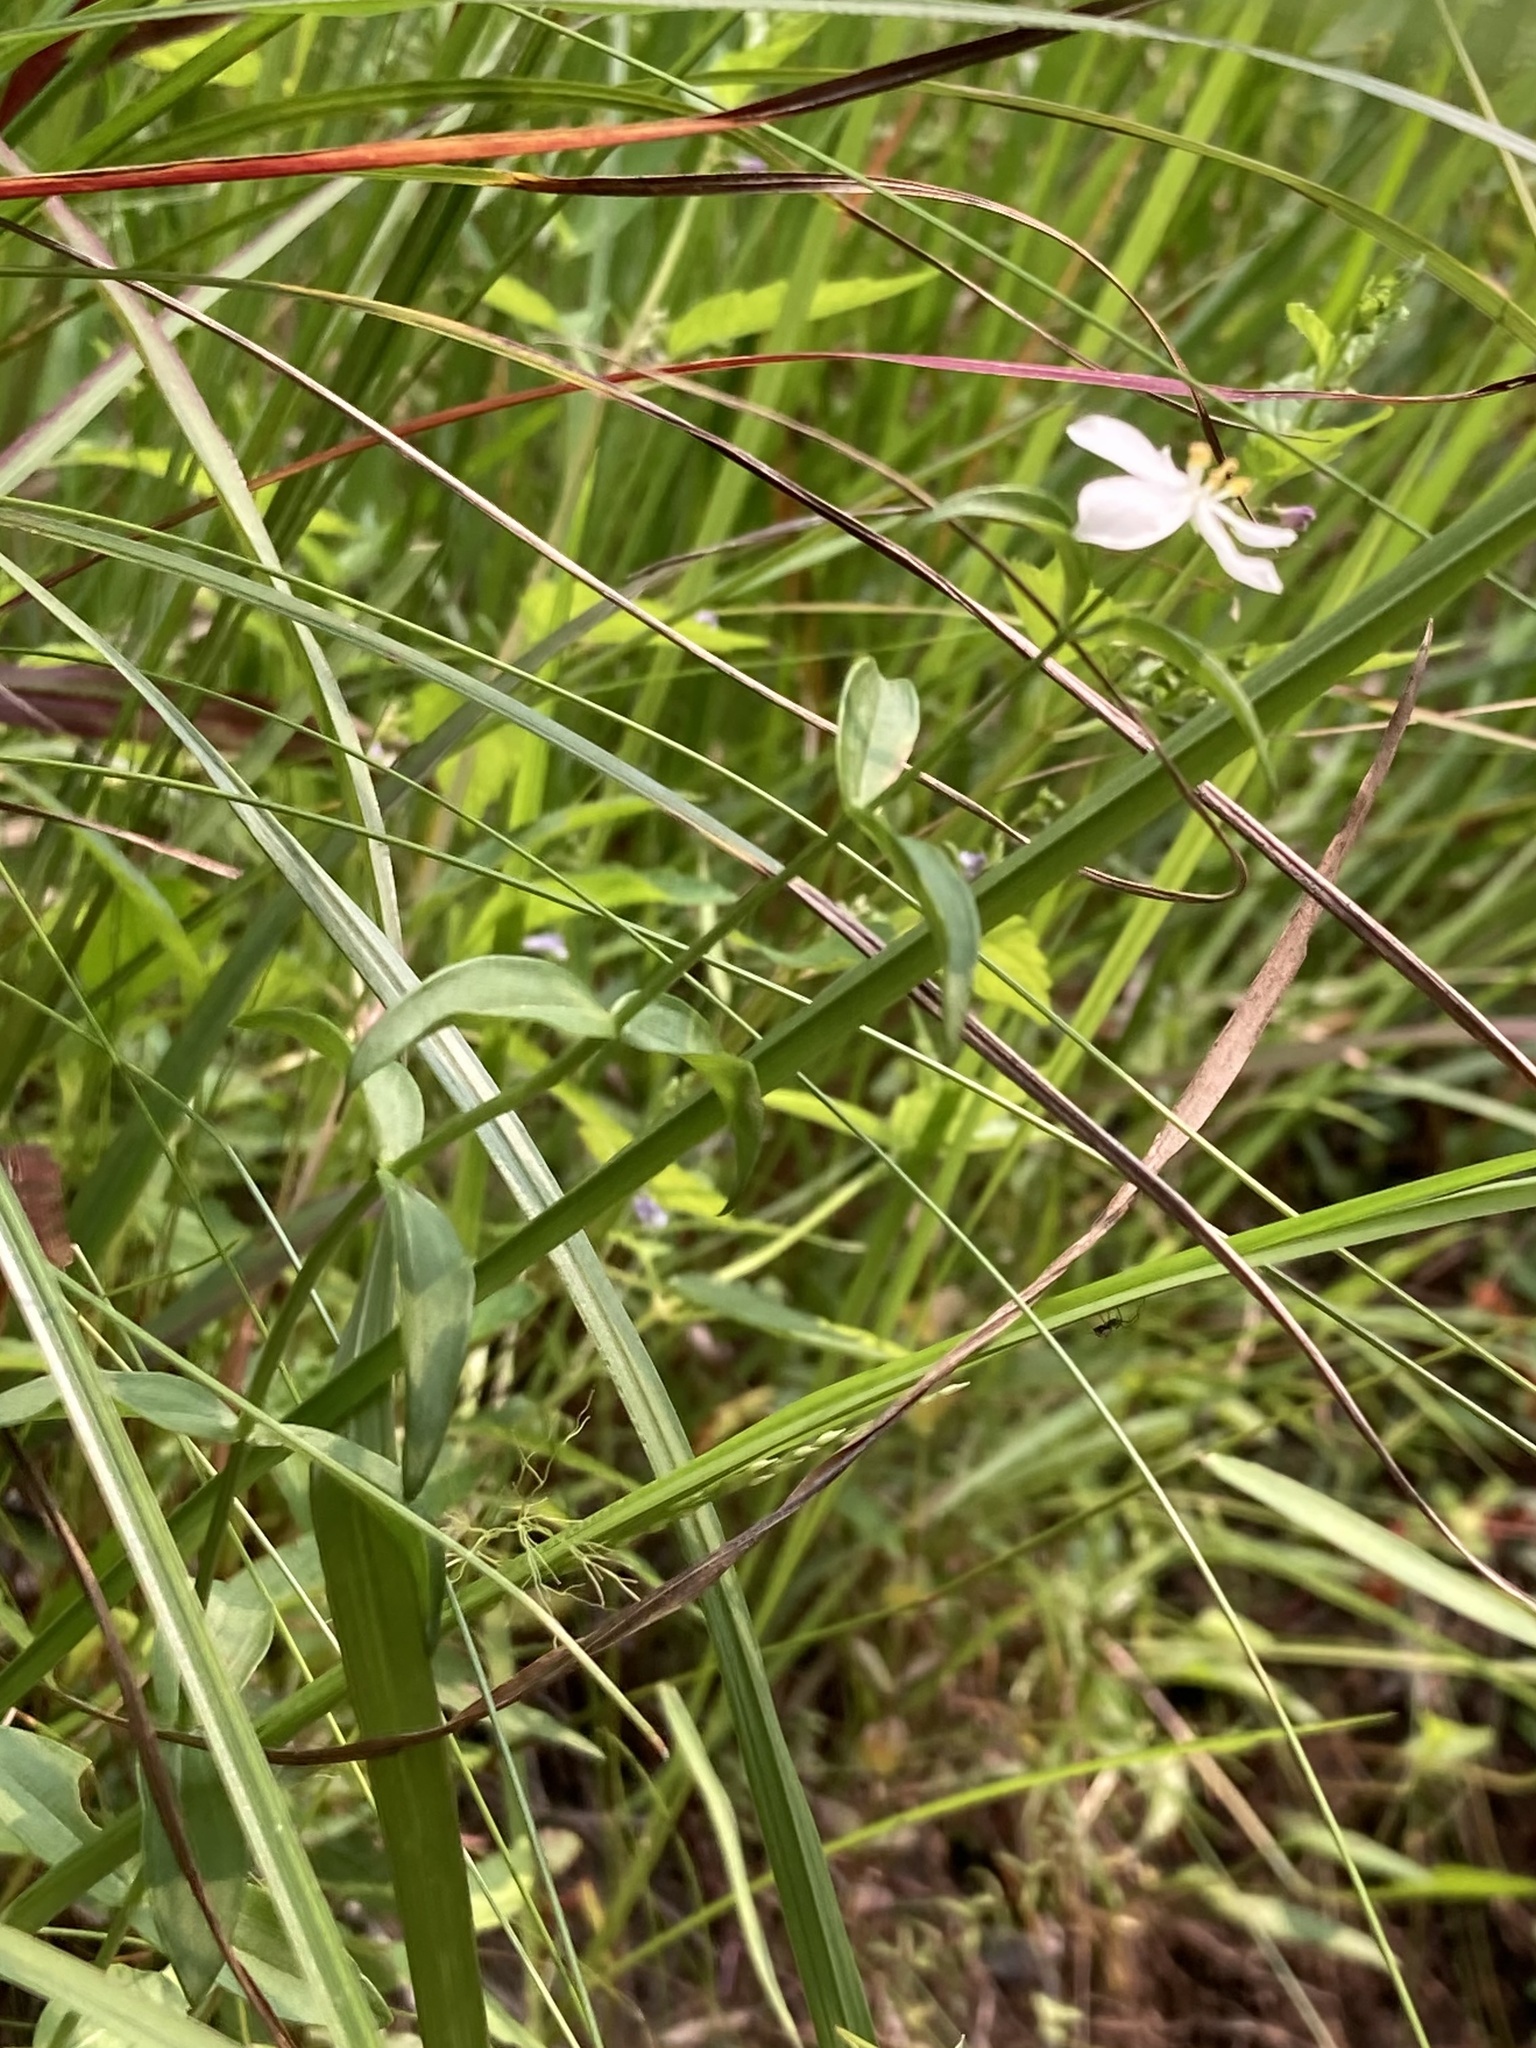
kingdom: Plantae
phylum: Tracheophyta
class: Magnoliopsida
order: Gentianales
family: Gentianaceae
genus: Sabatia
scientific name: Sabatia difformis
